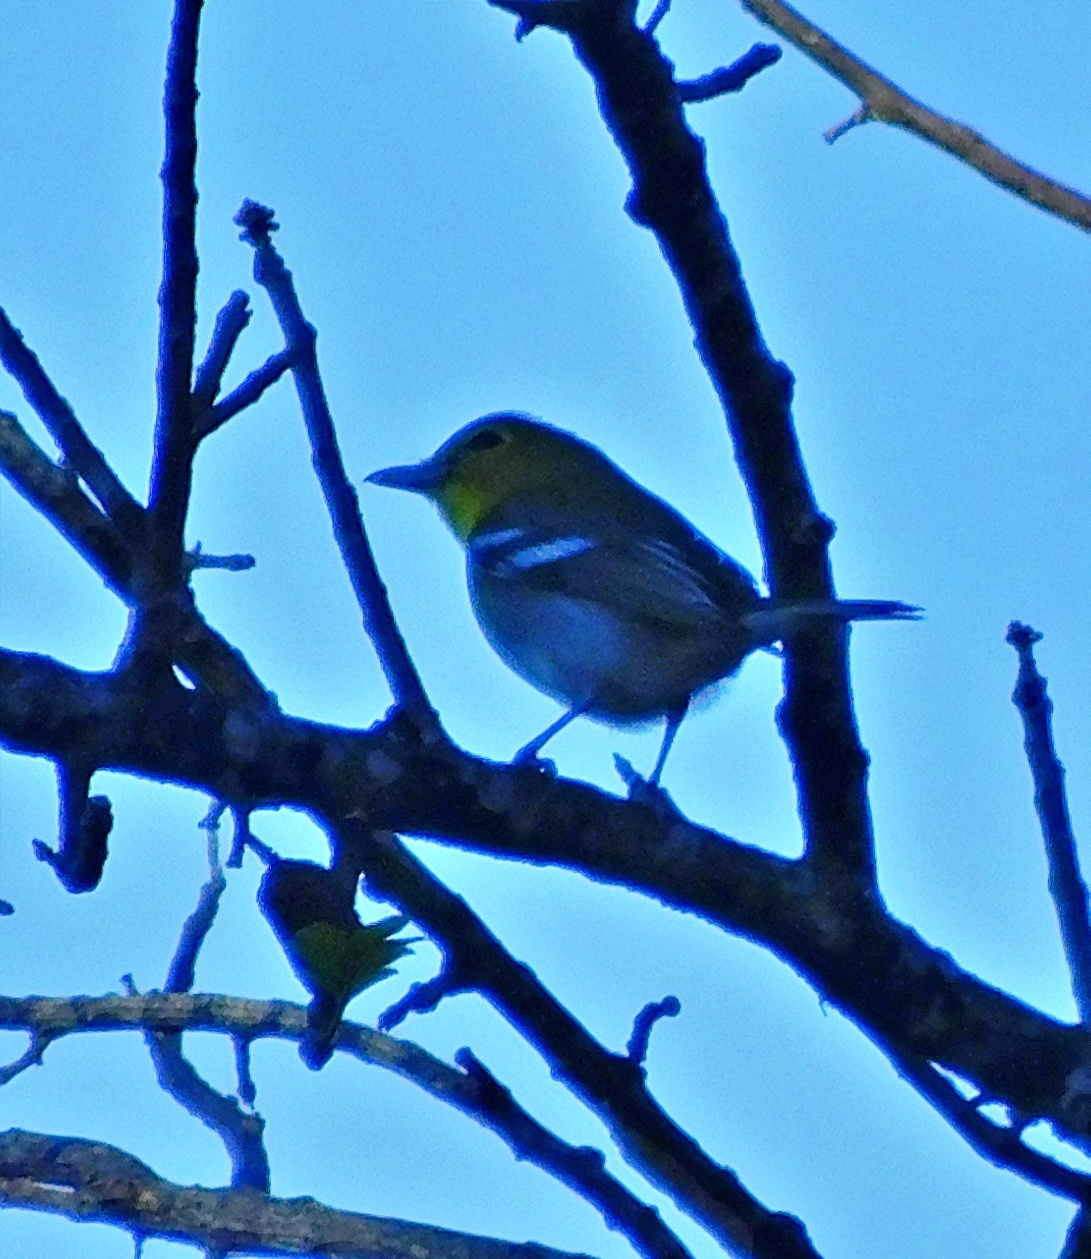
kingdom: Animalia
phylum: Chordata
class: Aves
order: Passeriformes
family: Vireonidae
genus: Vireo
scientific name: Vireo flavifrons
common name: Yellow-throated vireo
